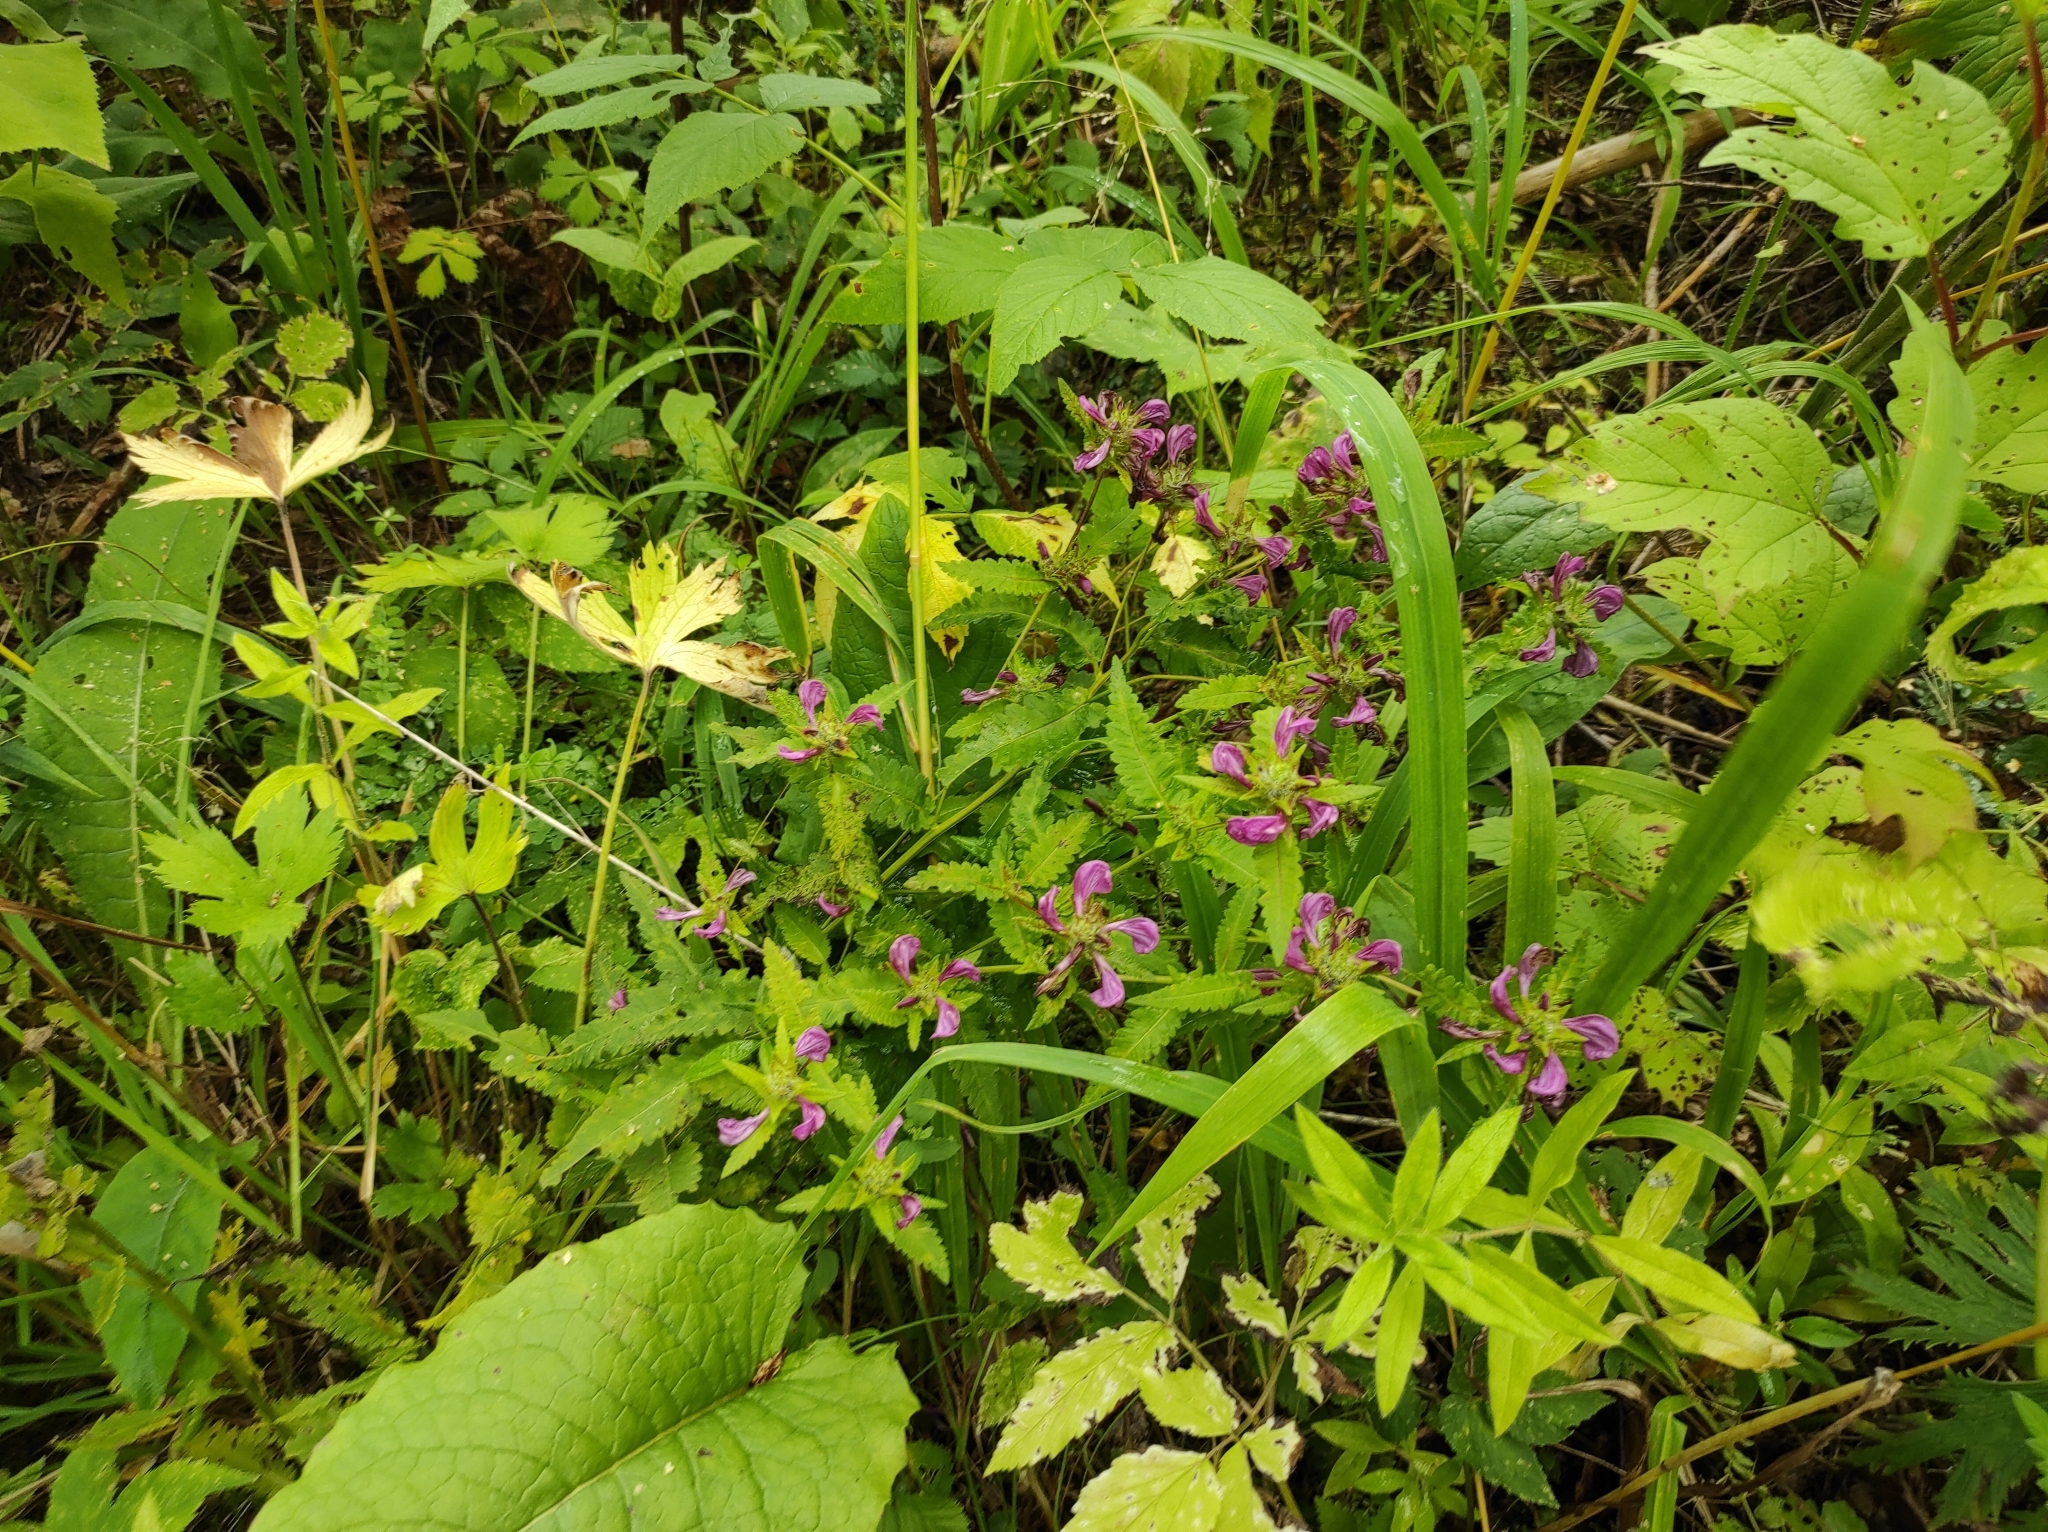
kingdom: Plantae
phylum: Tracheophyta
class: Magnoliopsida
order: Lamiales
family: Orobanchaceae
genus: Pedicularis
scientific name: Pedicularis resupinata
